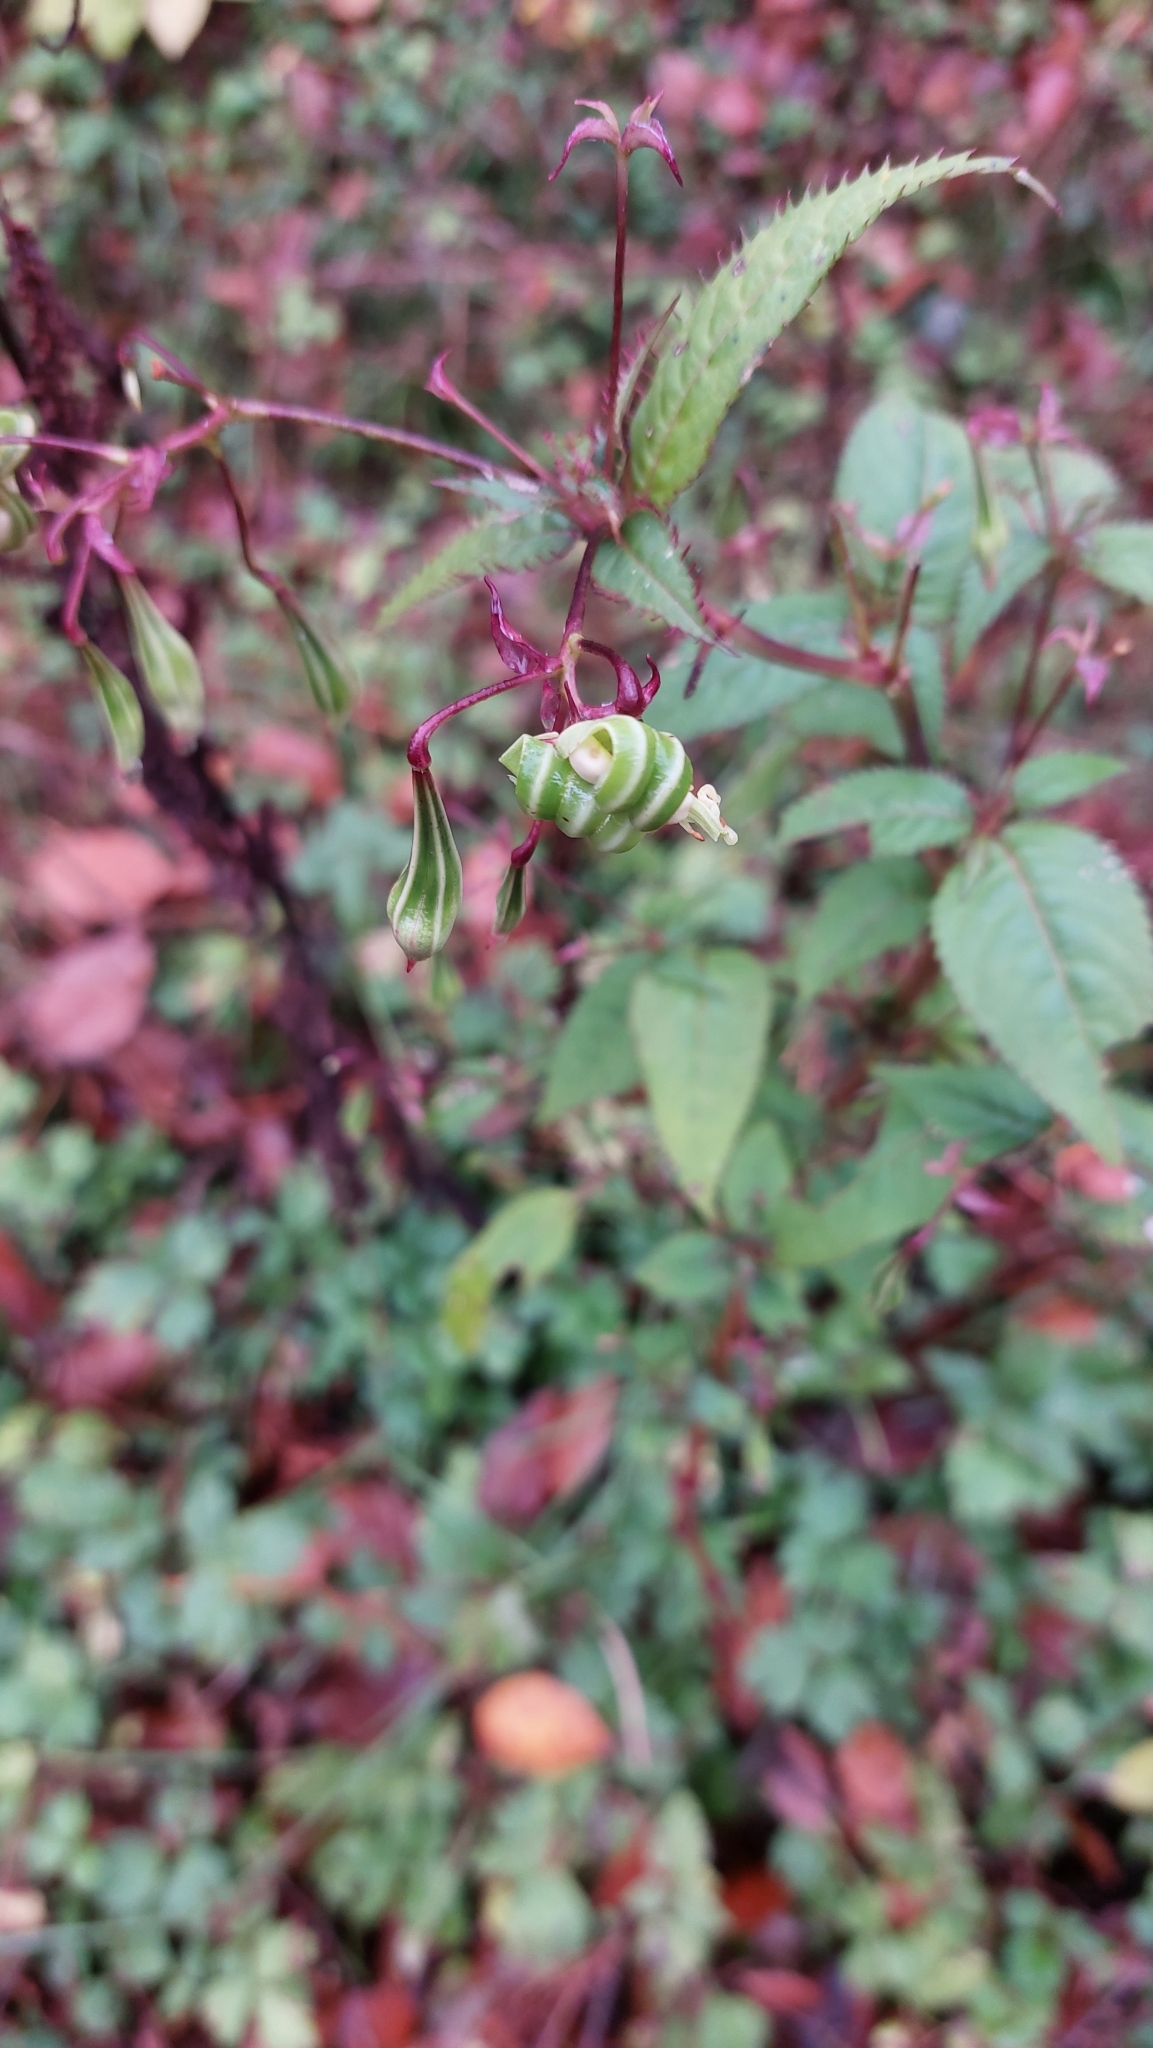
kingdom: Plantae
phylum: Tracheophyta
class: Magnoliopsida
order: Ericales
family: Balsaminaceae
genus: Impatiens
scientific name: Impatiens glandulifera
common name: Himalayan balsam
